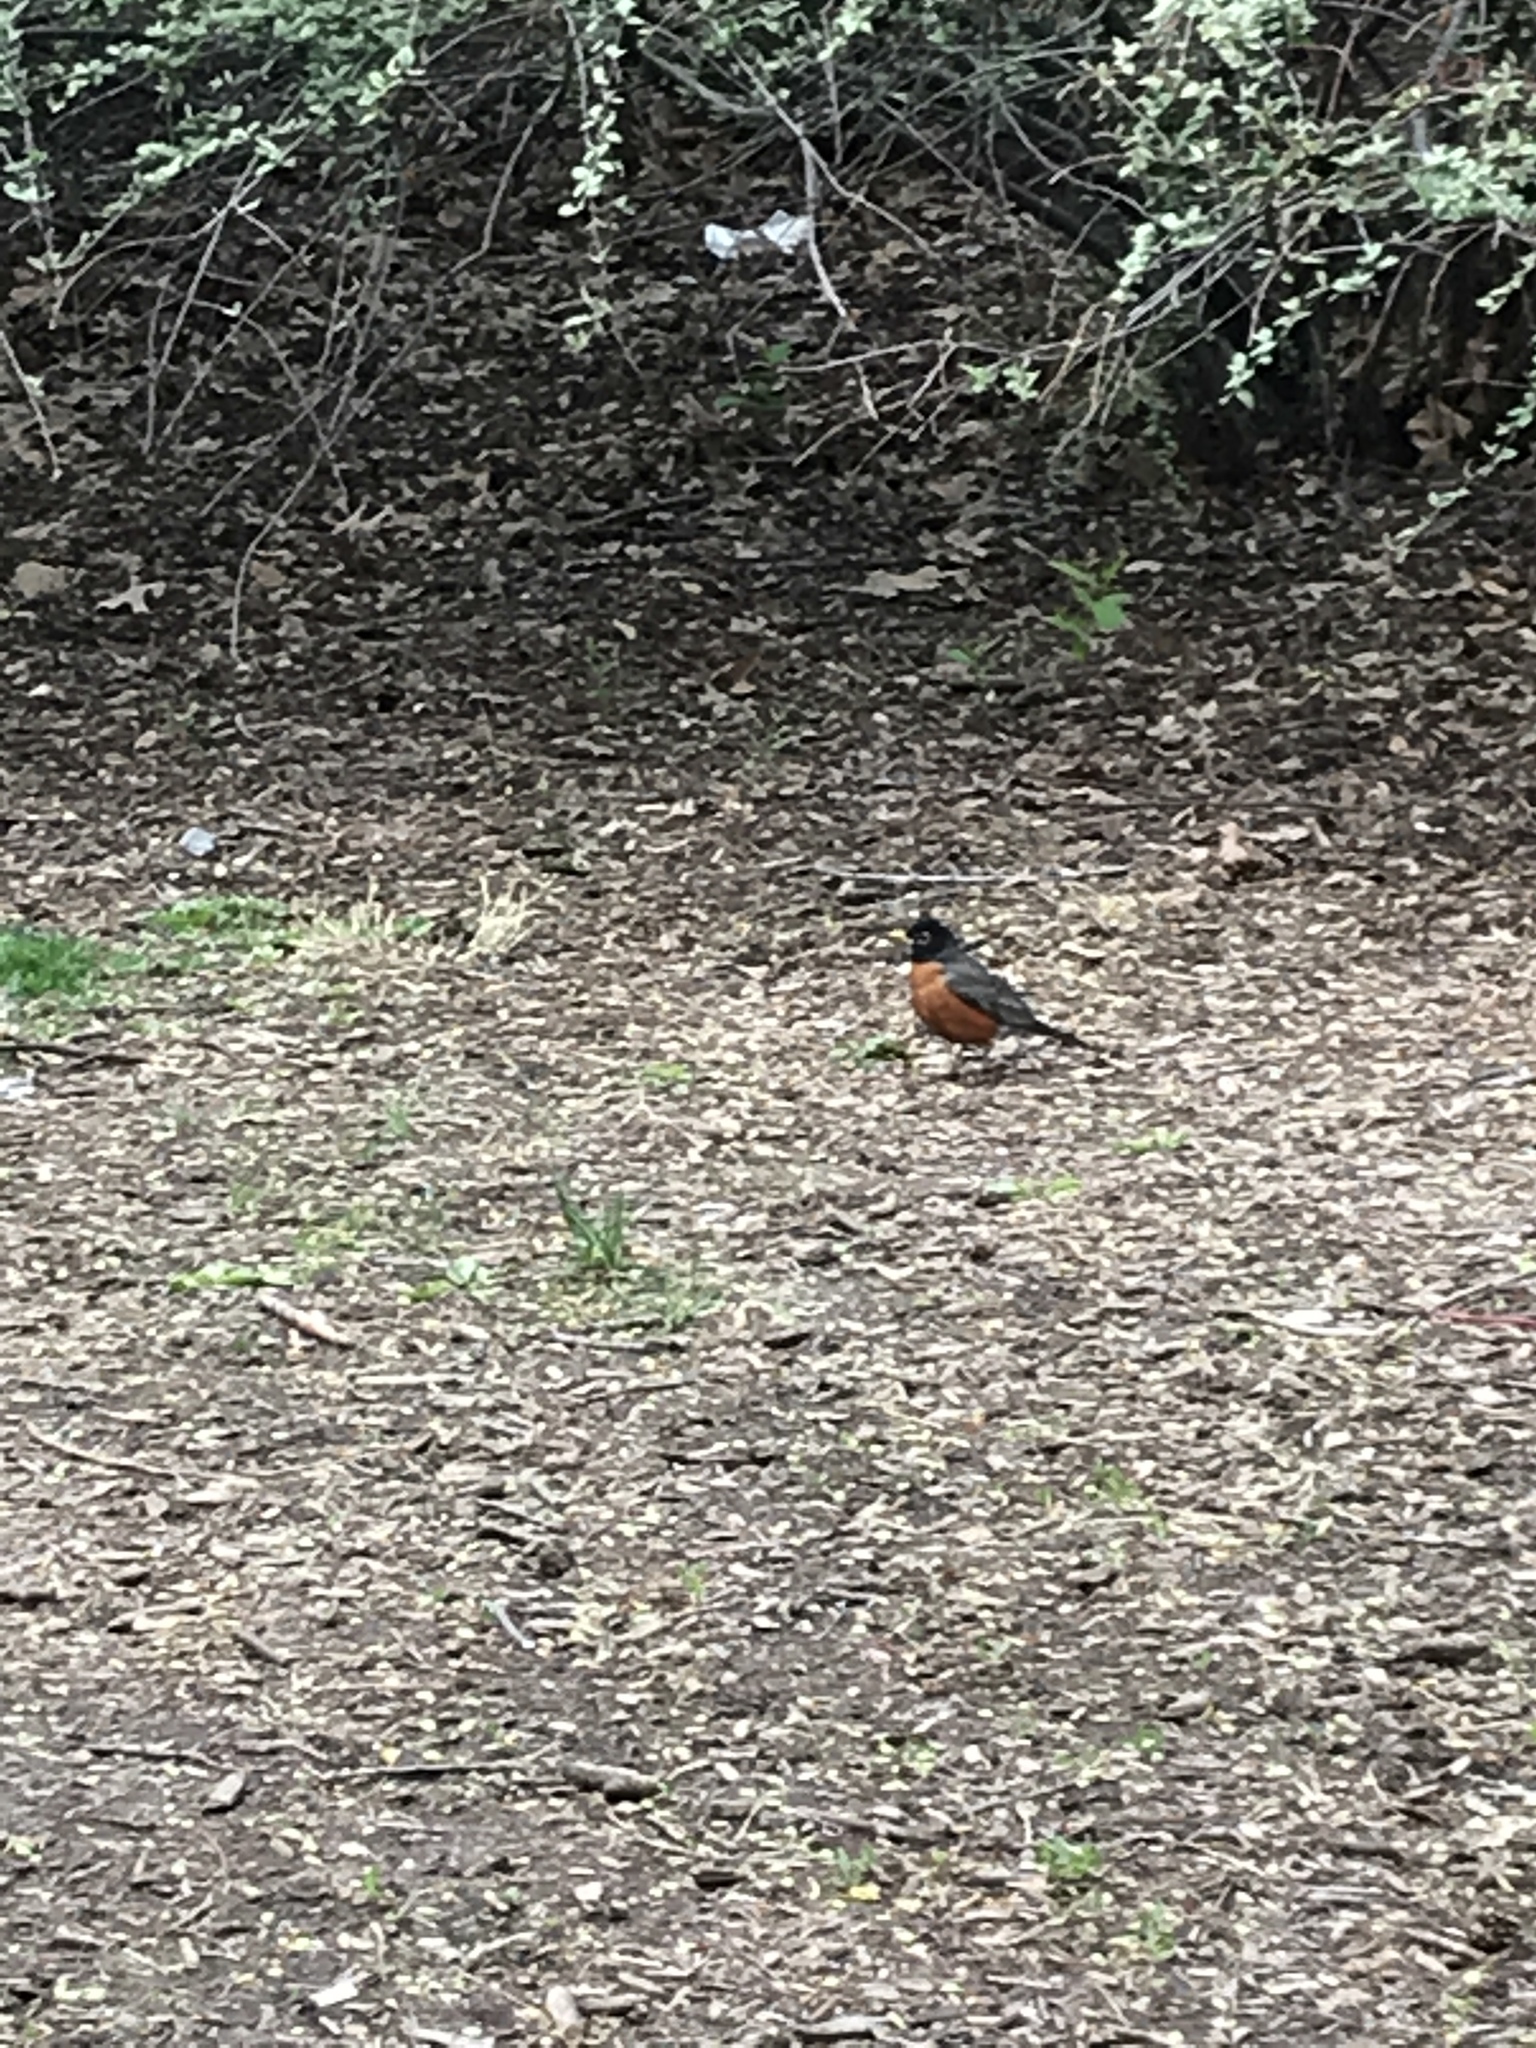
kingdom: Animalia
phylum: Chordata
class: Aves
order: Passeriformes
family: Turdidae
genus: Turdus
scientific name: Turdus migratorius
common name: American robin
